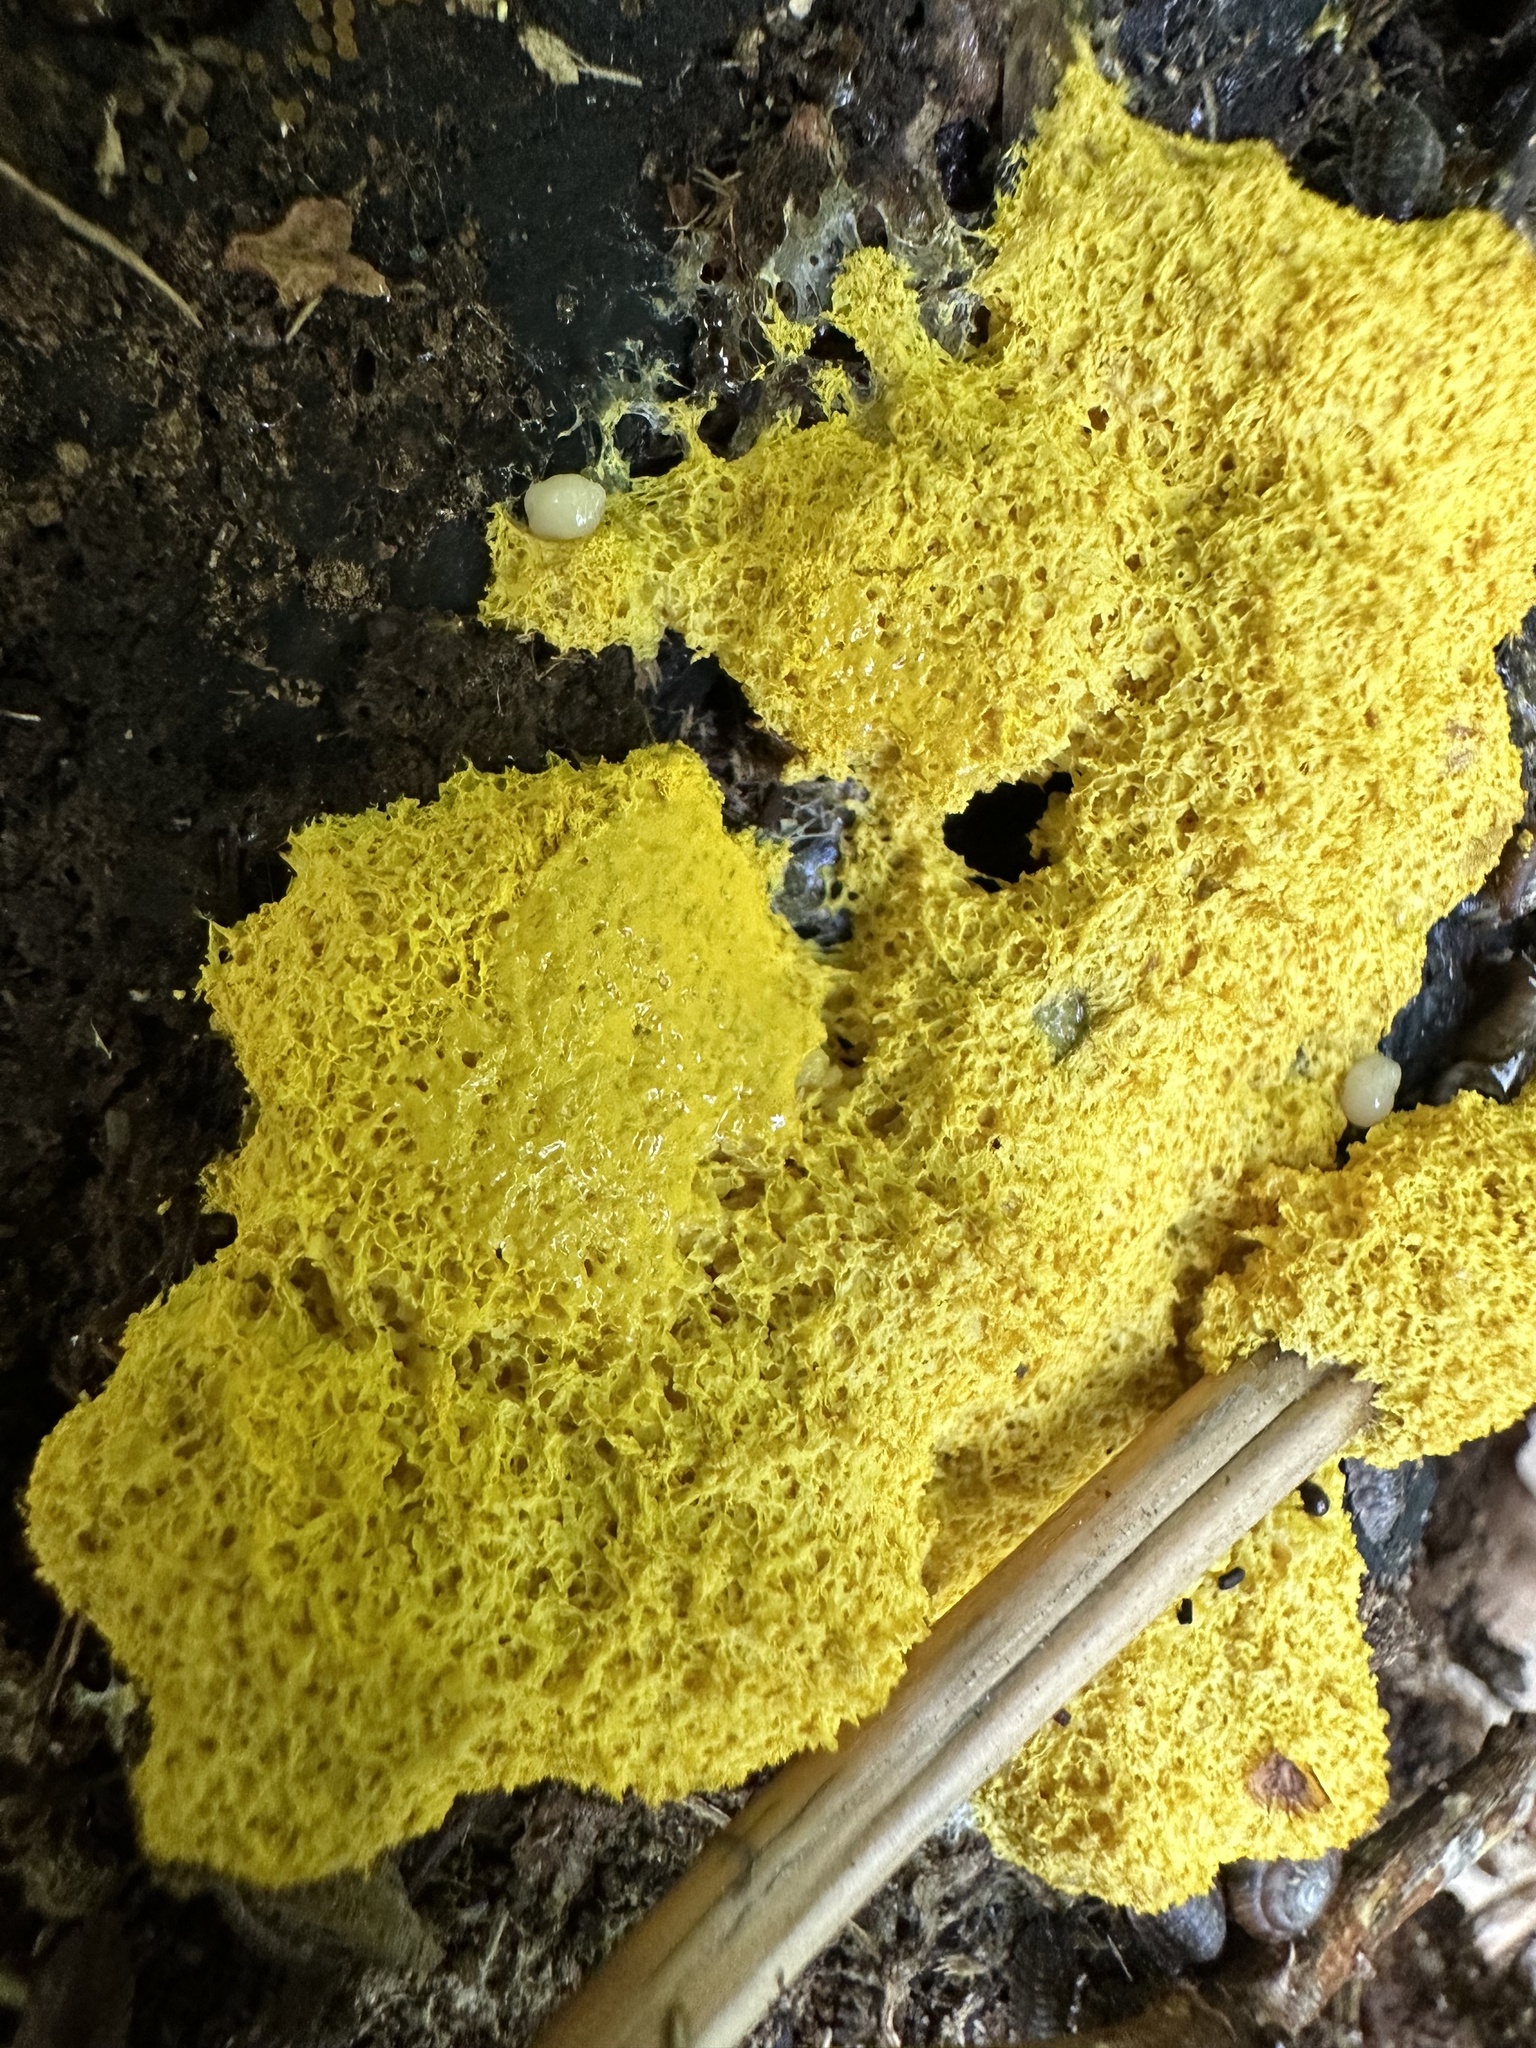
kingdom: Protozoa
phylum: Mycetozoa
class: Myxomycetes
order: Physarales
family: Physaraceae
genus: Fuligo
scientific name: Fuligo septica
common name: Dog vomit slime mold
